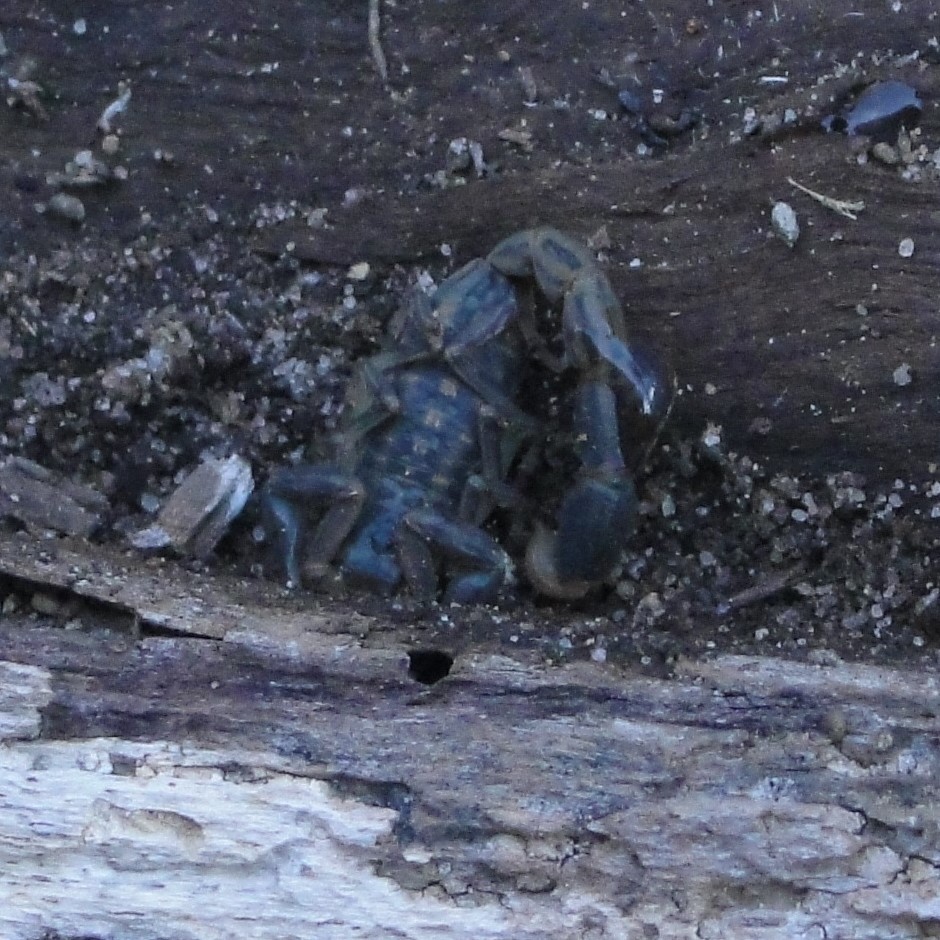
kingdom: Animalia
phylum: Arthropoda
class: Arachnida
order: Scorpiones
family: Buthidae
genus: Uroplectes
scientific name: Uroplectes lineatus
